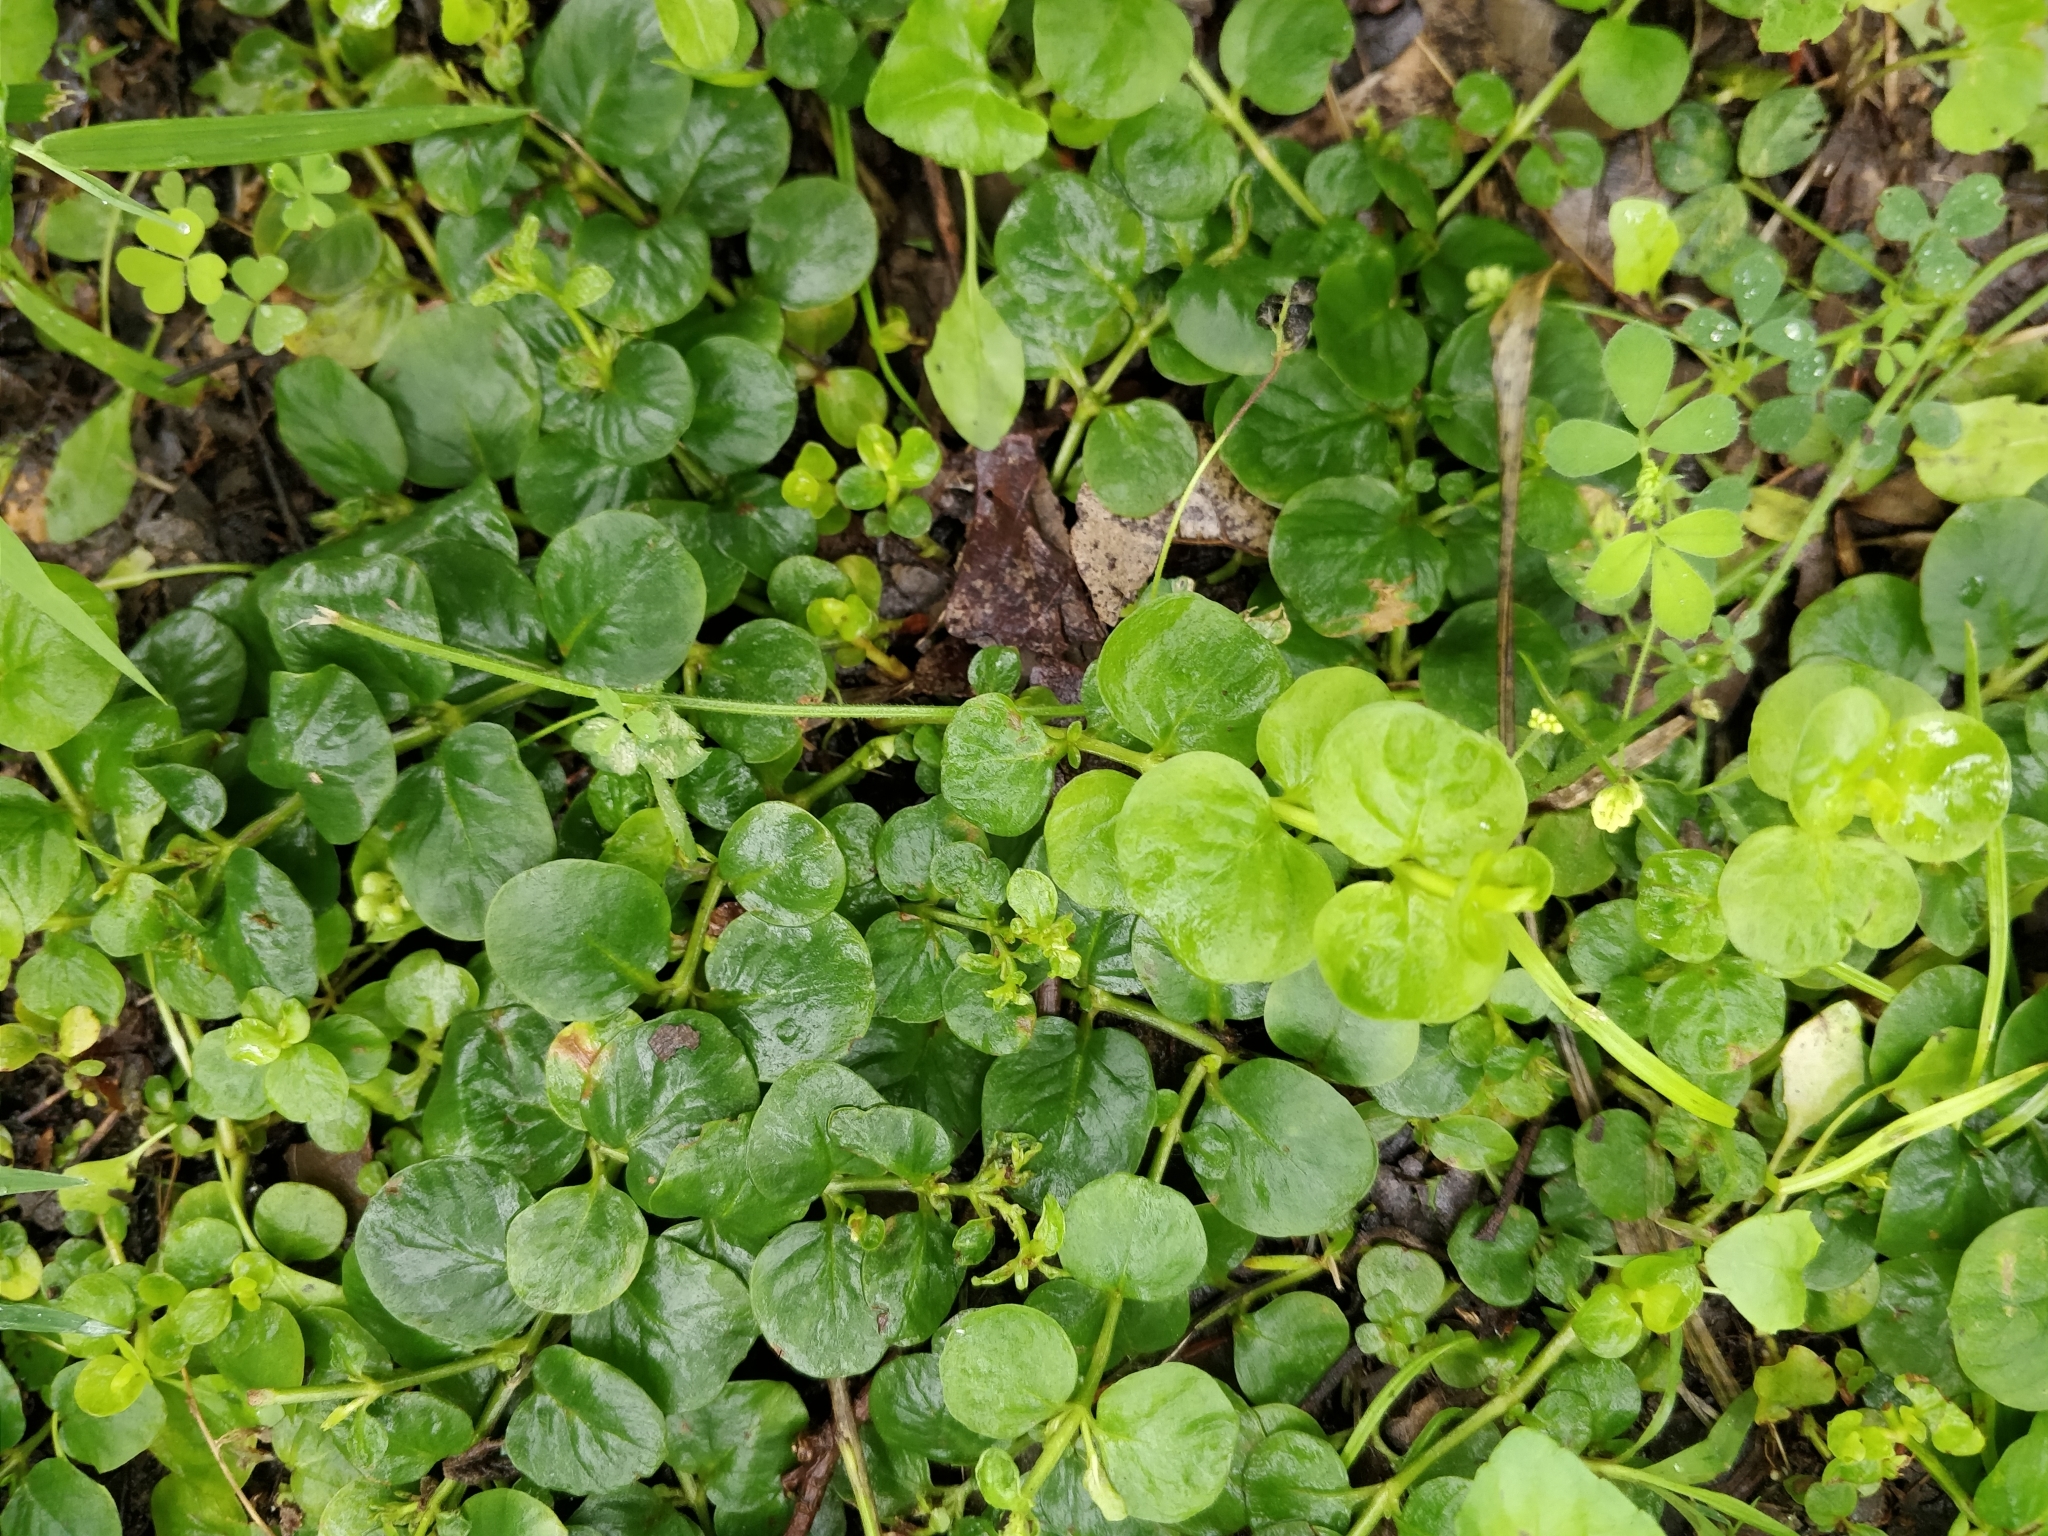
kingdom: Plantae
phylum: Tracheophyta
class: Magnoliopsida
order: Ericales
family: Primulaceae
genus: Lysimachia
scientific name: Lysimachia nummularia
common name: Moneywort
